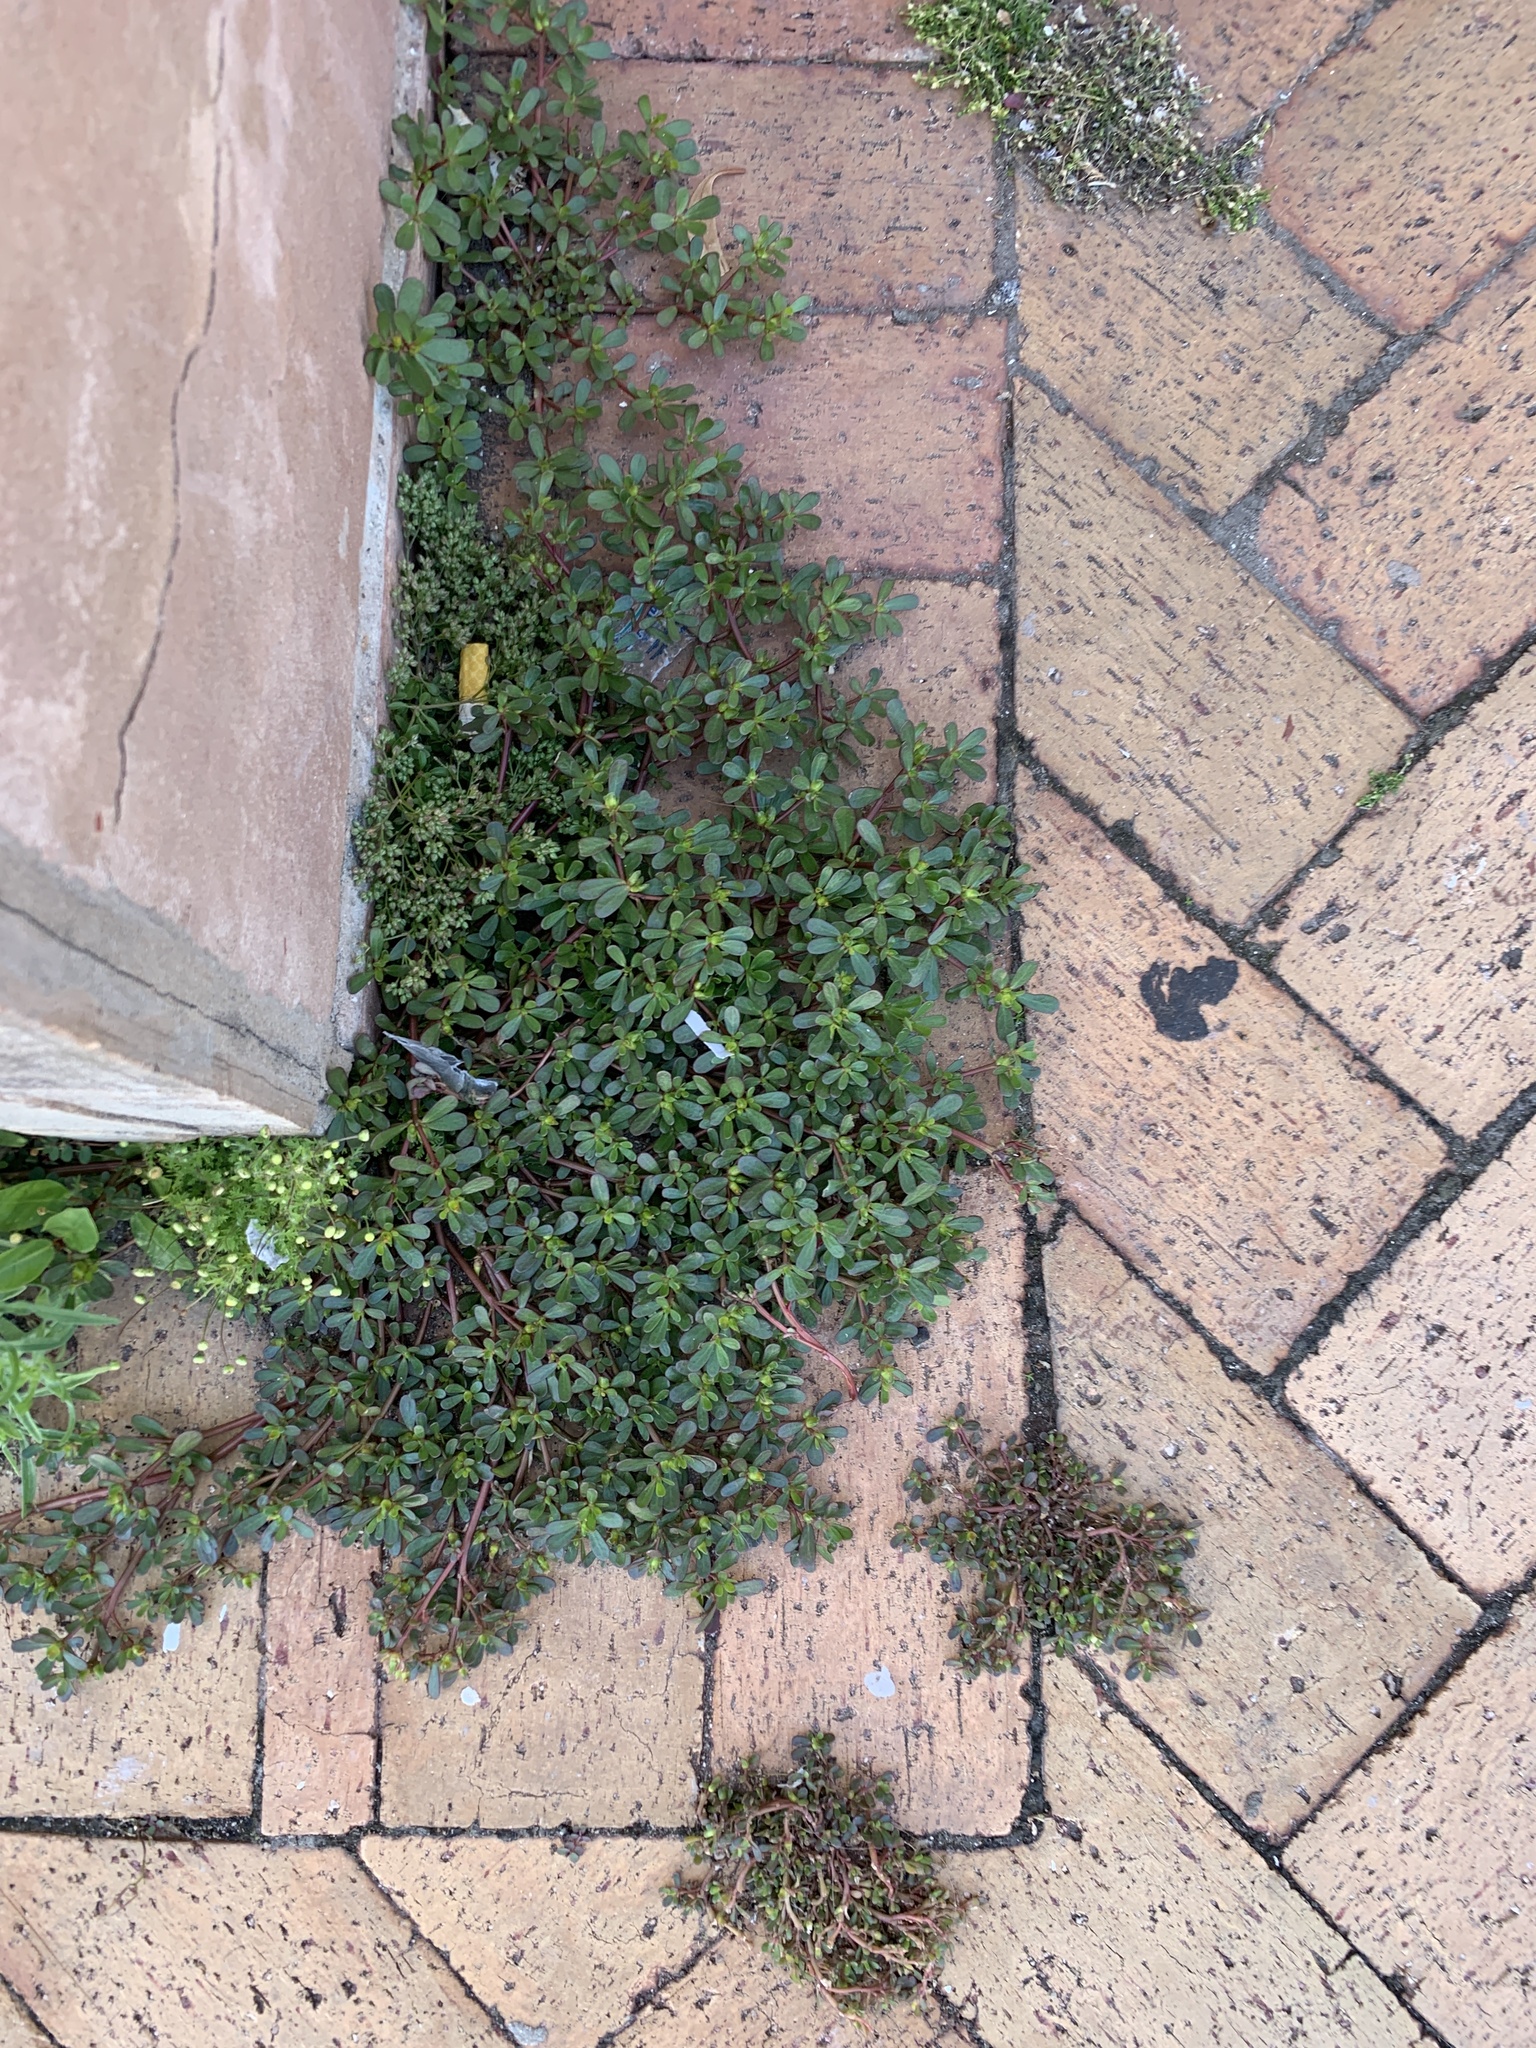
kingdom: Plantae
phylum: Tracheophyta
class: Magnoliopsida
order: Caryophyllales
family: Portulacaceae
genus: Portulaca
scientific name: Portulaca oleracea
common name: Common purslane
